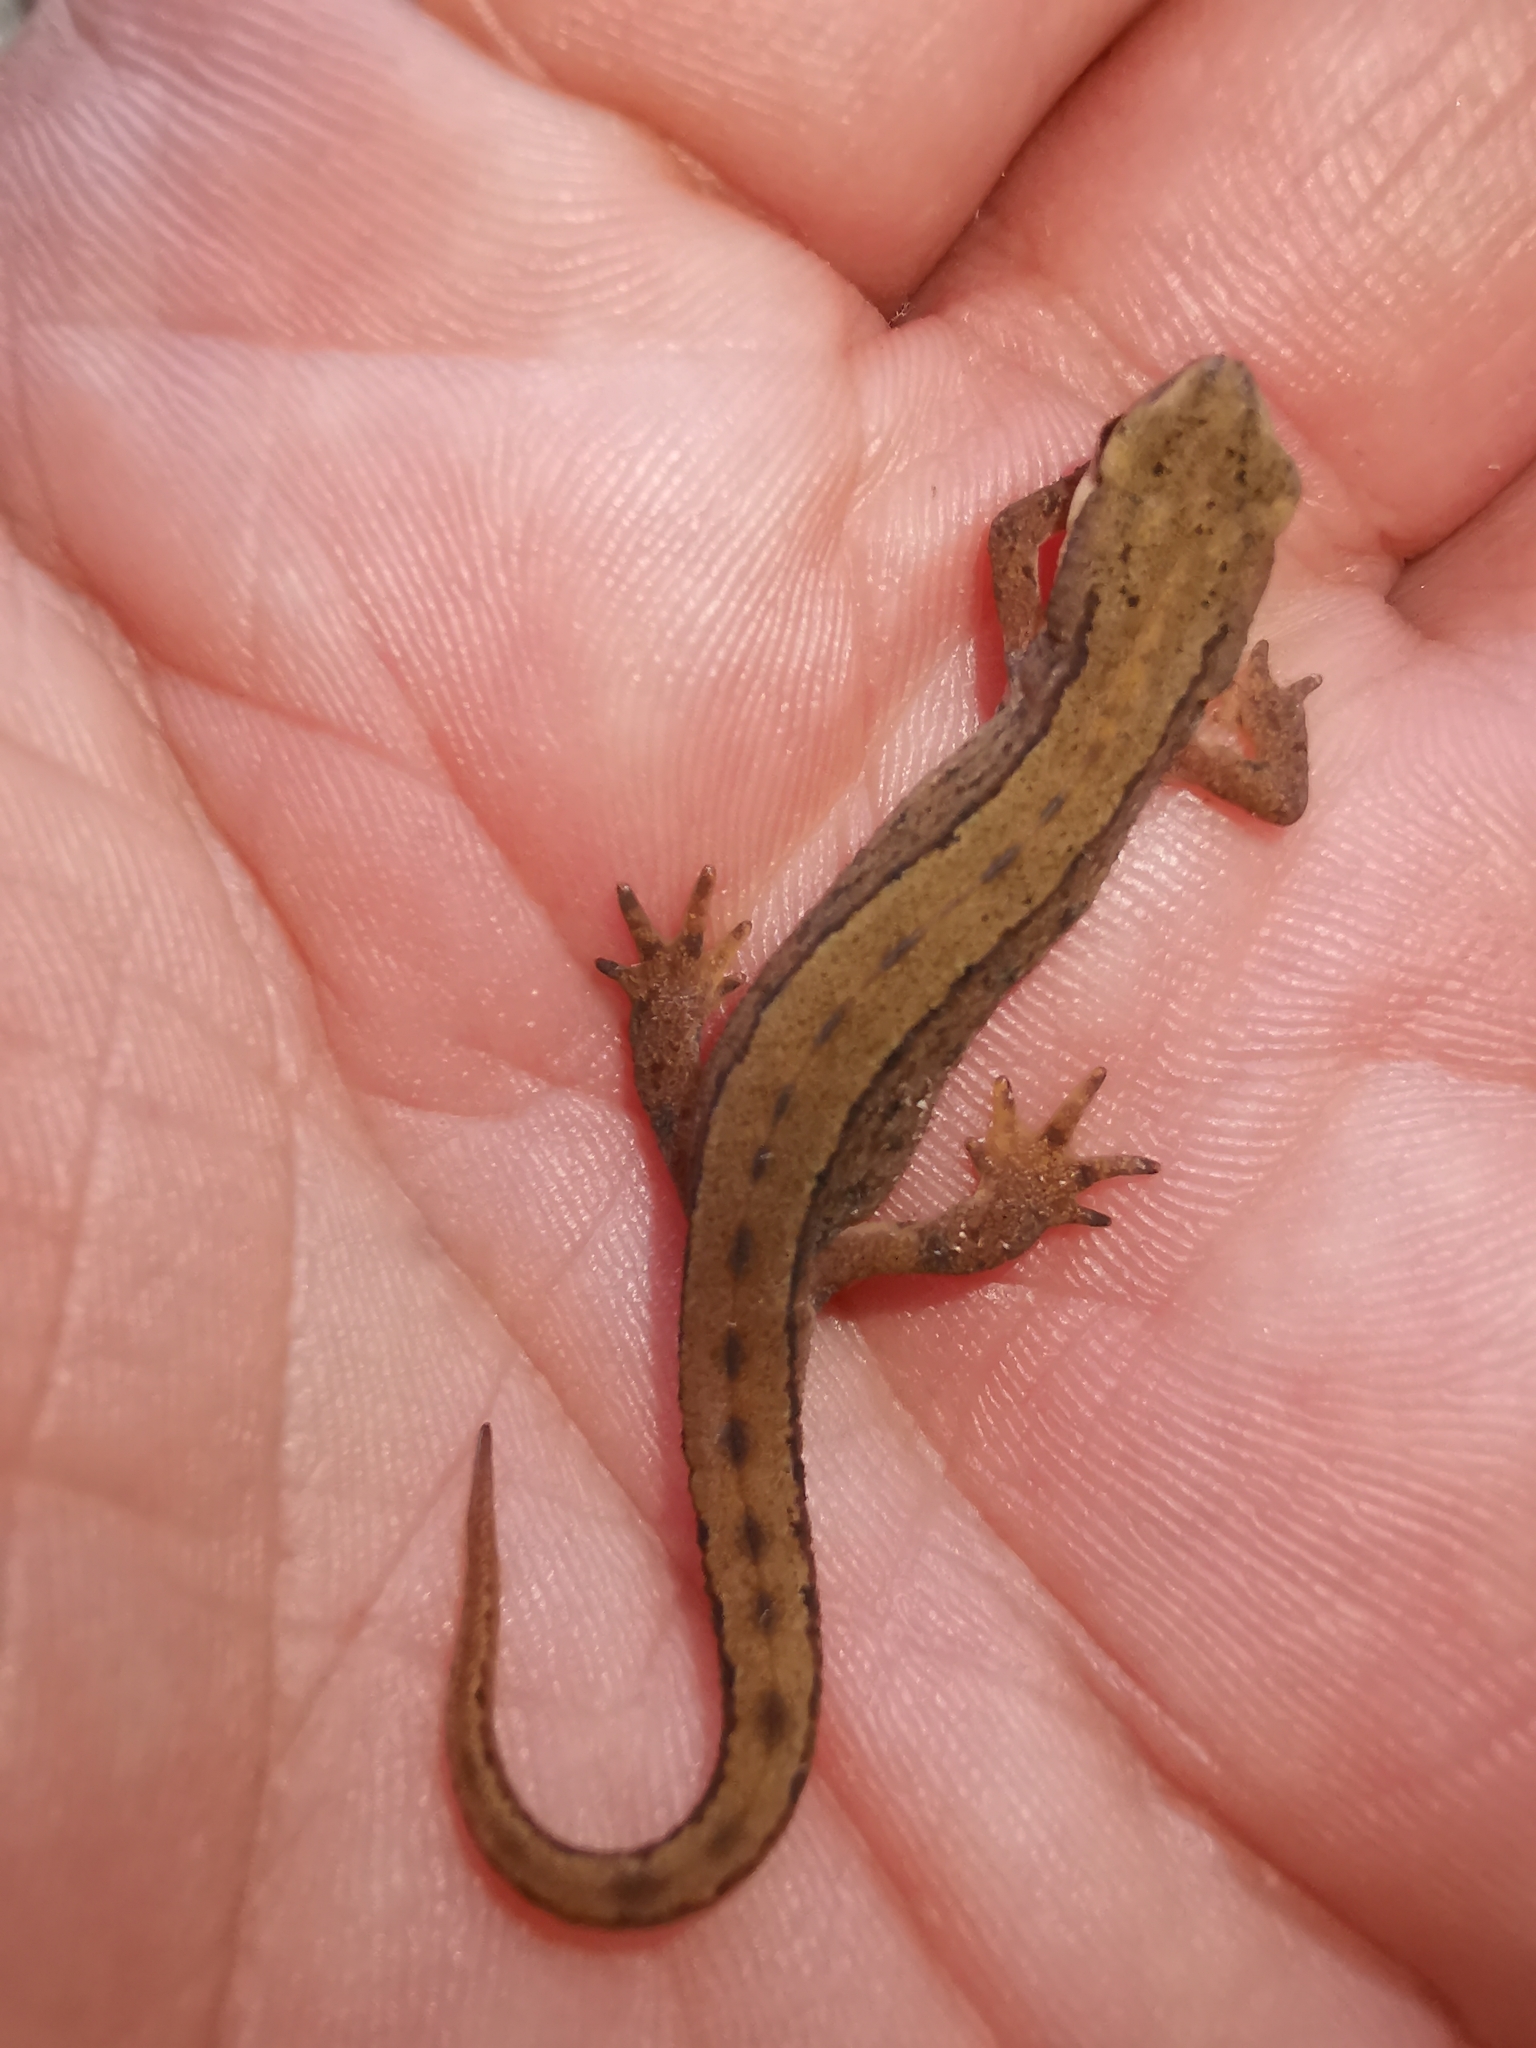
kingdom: Animalia
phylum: Chordata
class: Amphibia
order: Caudata
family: Salamandridae
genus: Lissotriton
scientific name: Lissotriton vulgaris
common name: Smooth newt
